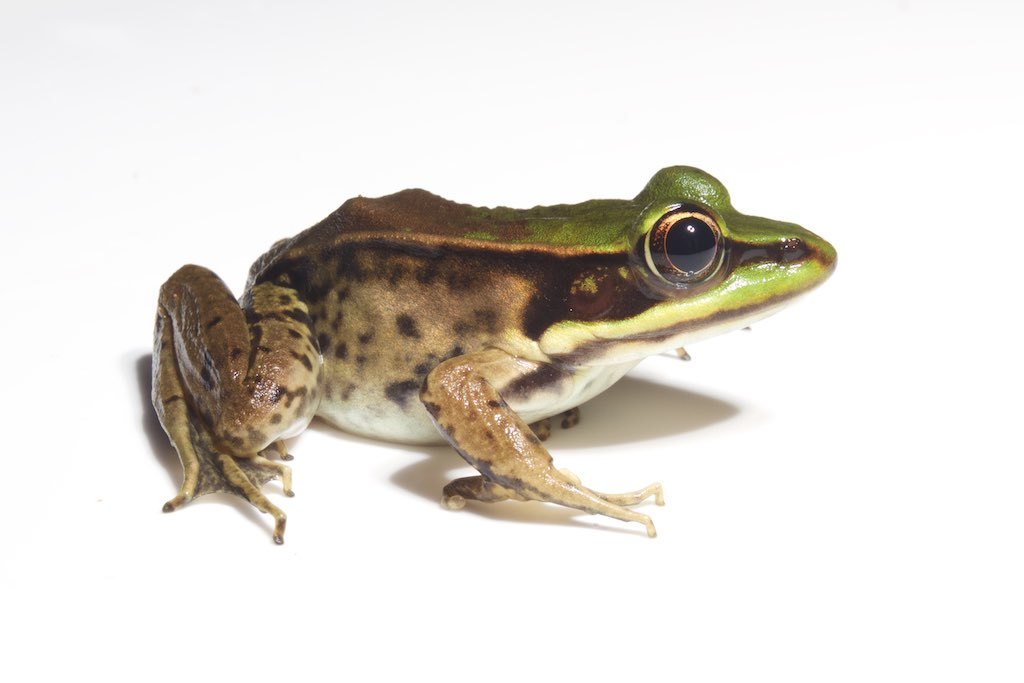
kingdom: Animalia
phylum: Chordata
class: Amphibia
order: Anura
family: Ranidae
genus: Lithobates
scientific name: Lithobates vaillanti
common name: Vaillant's frog
